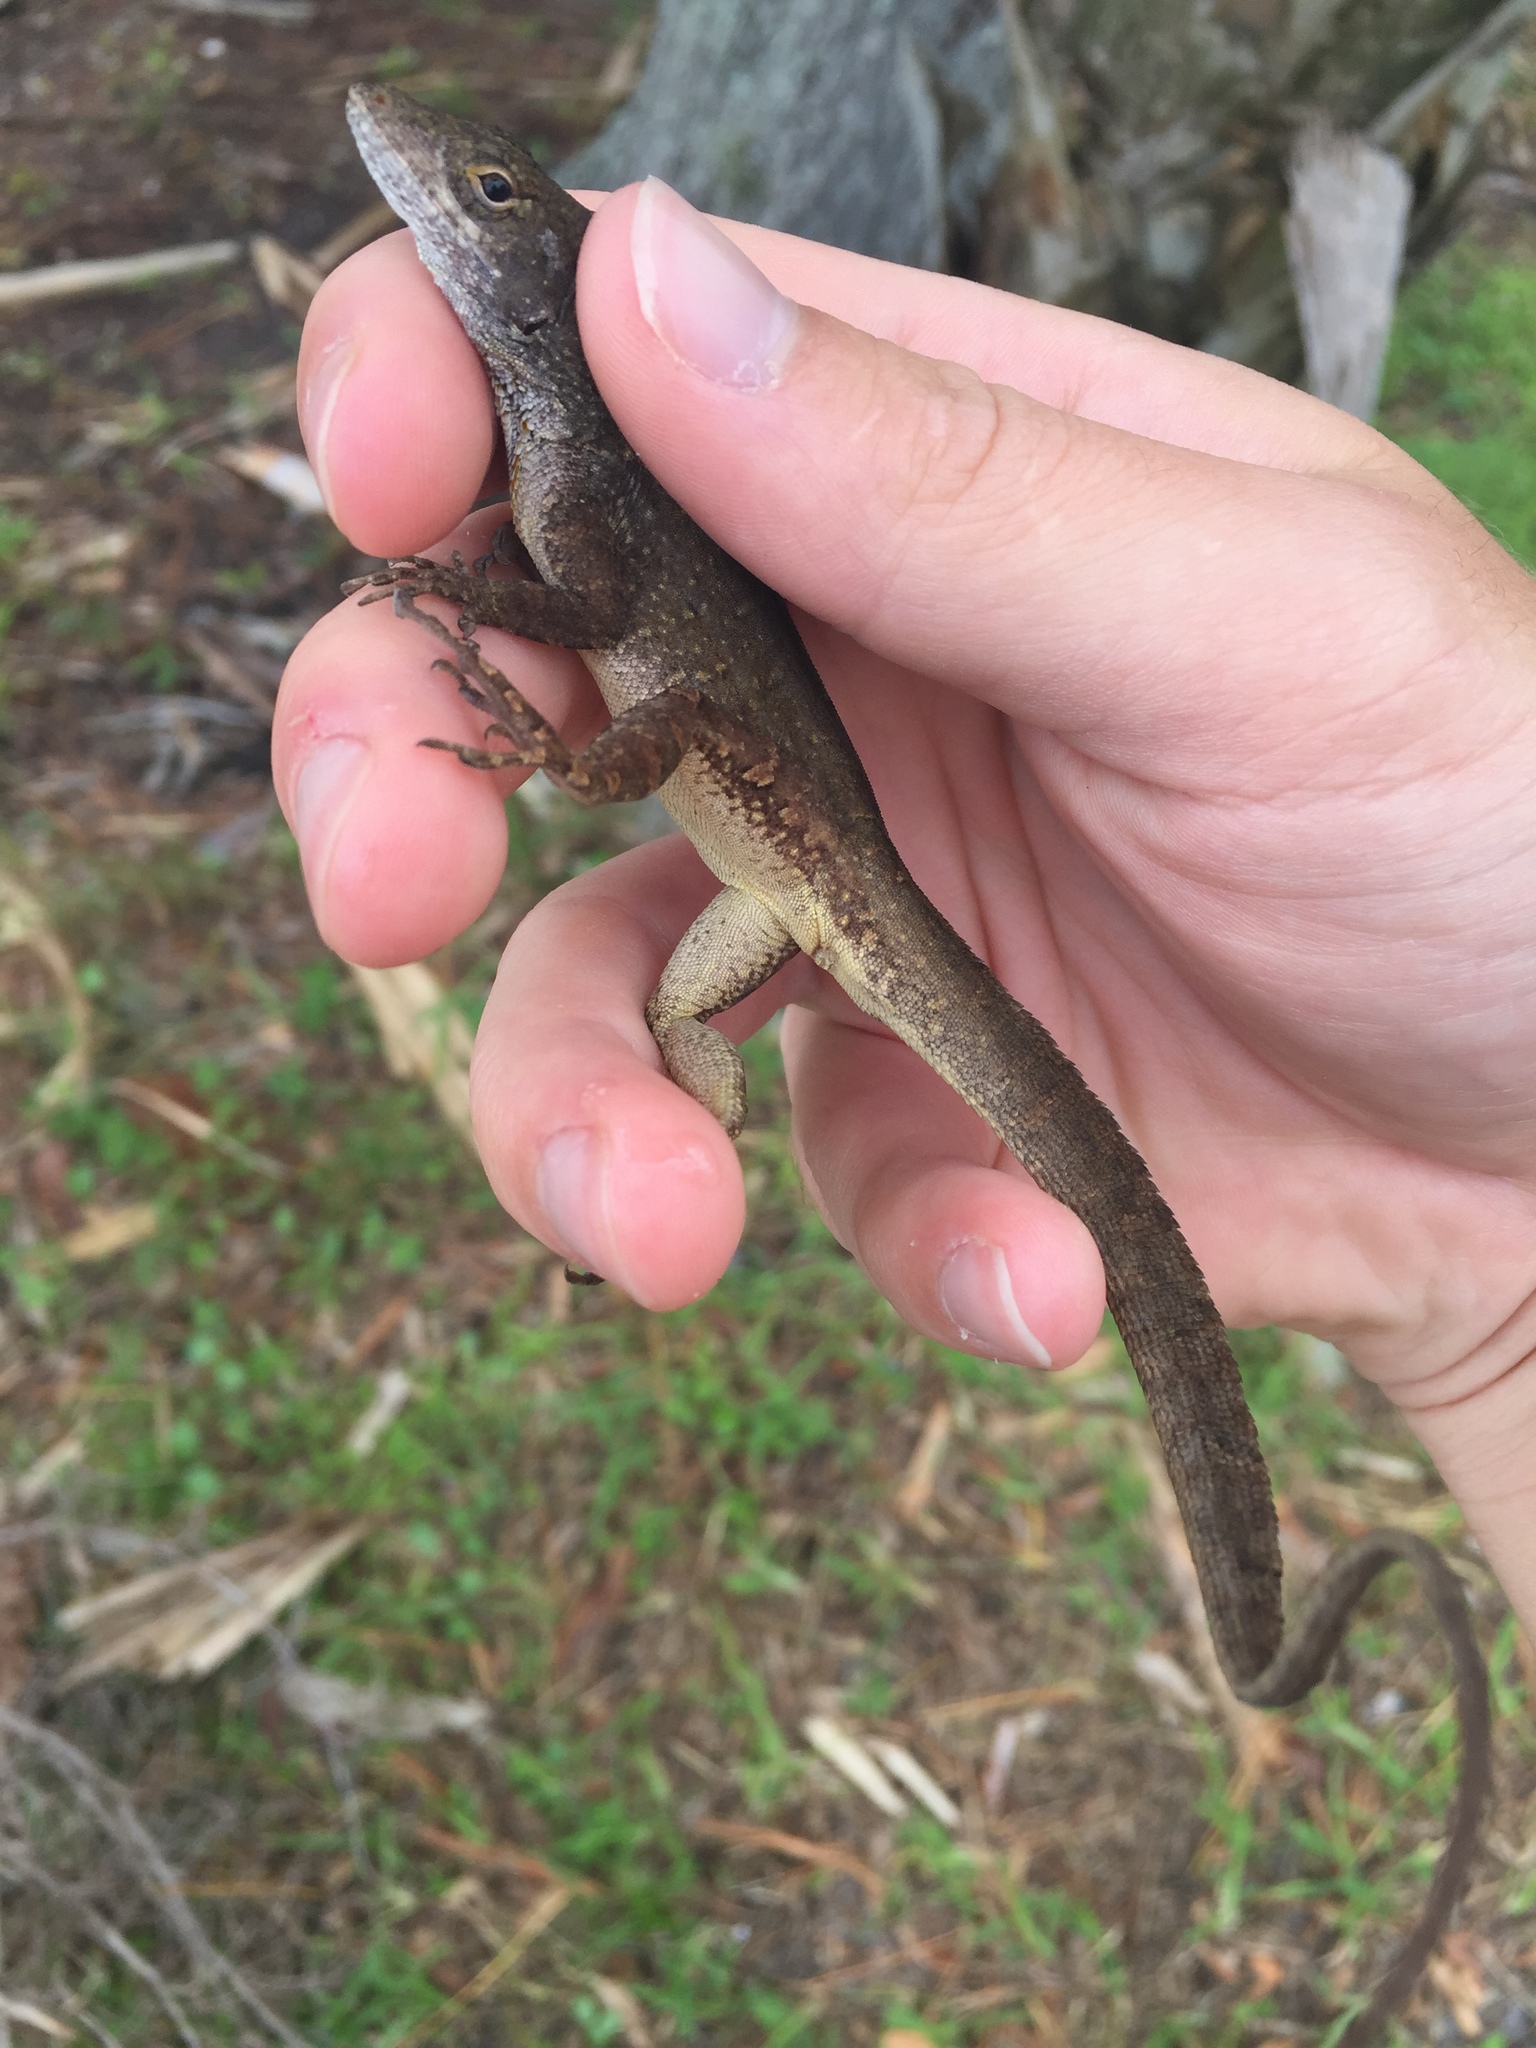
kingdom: Animalia
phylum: Chordata
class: Squamata
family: Dactyloidae
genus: Anolis
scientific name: Anolis sagrei
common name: Brown anole
